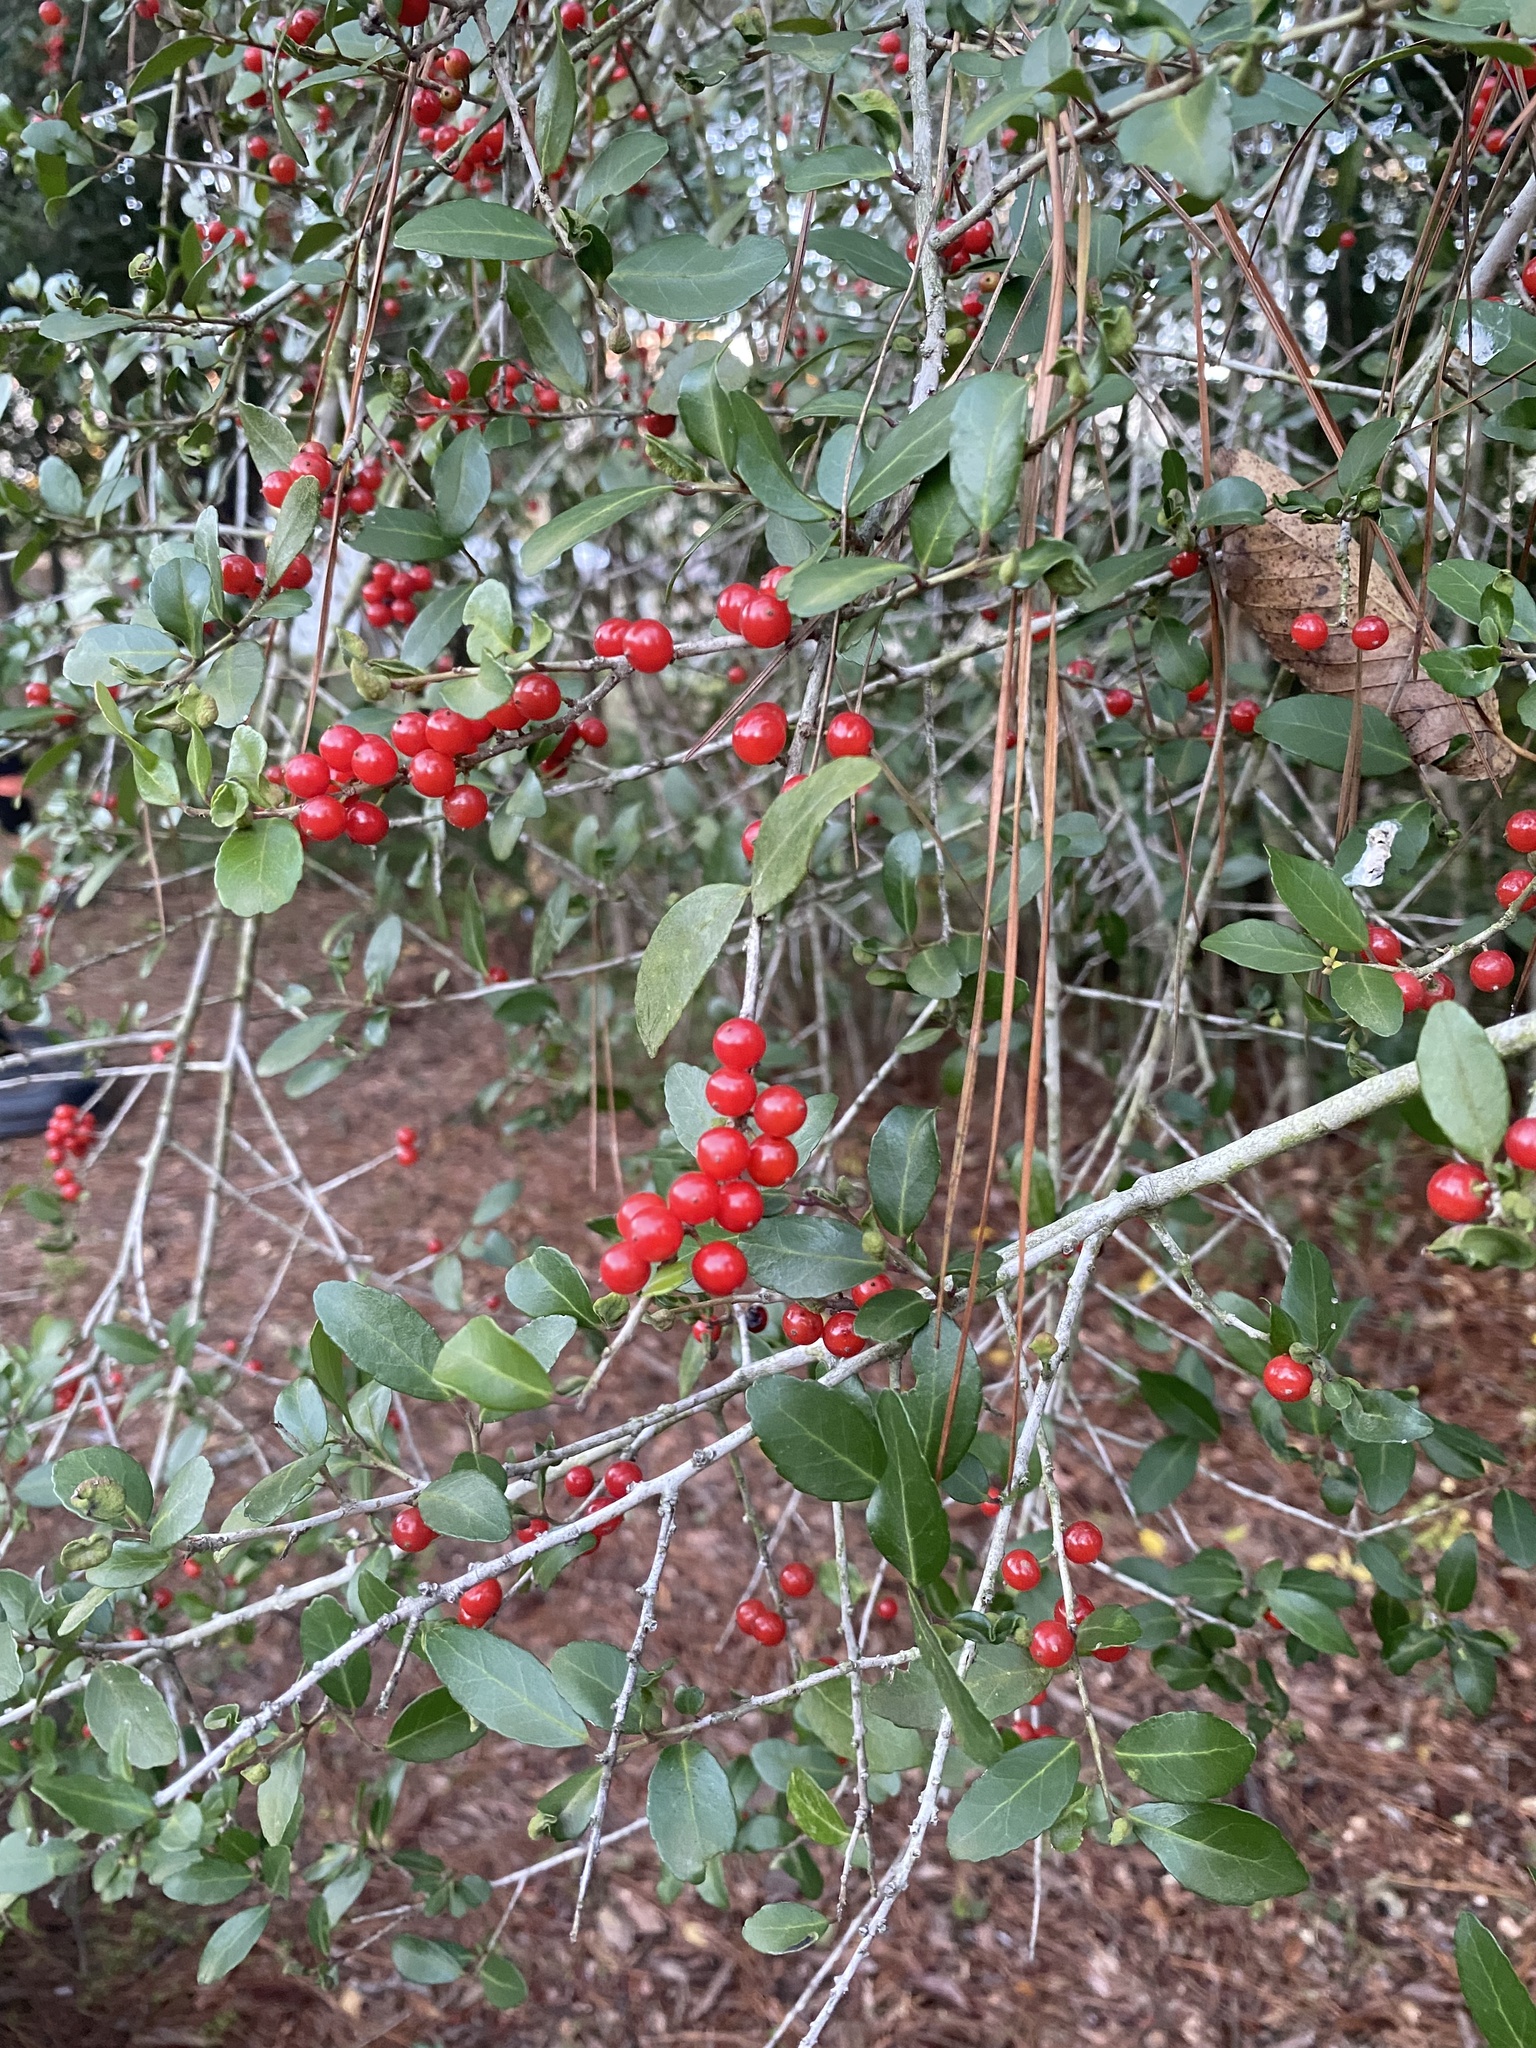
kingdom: Plantae
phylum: Tracheophyta
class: Magnoliopsida
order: Aquifoliales
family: Aquifoliaceae
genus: Ilex
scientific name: Ilex vomitoria
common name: Yaupon holly
